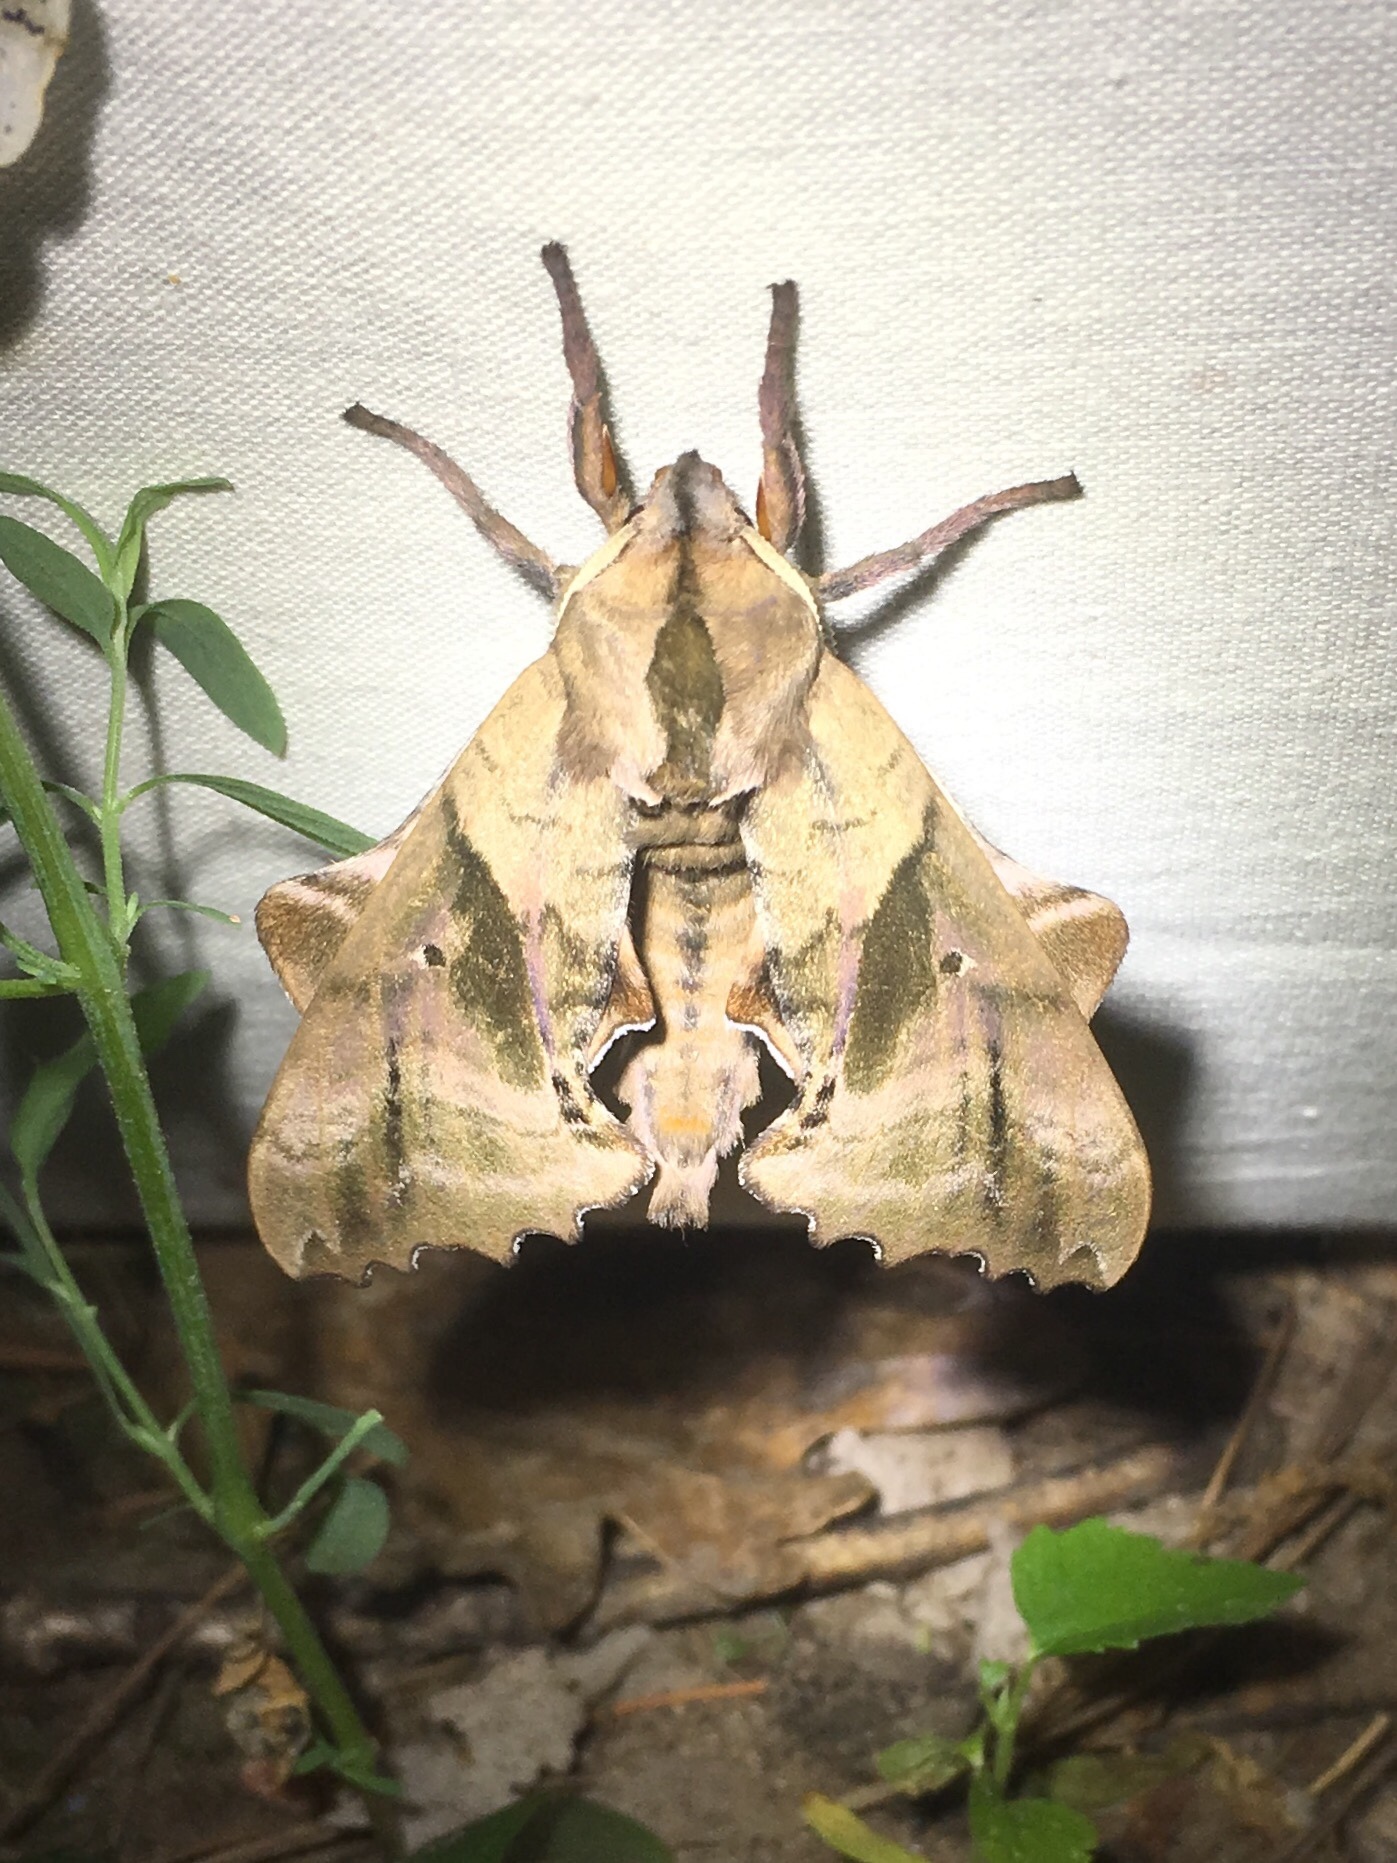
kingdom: Animalia
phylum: Arthropoda
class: Insecta
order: Lepidoptera
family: Sphingidae
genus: Paonias
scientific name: Paonias excaecata
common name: Blind-eyed sphinx
